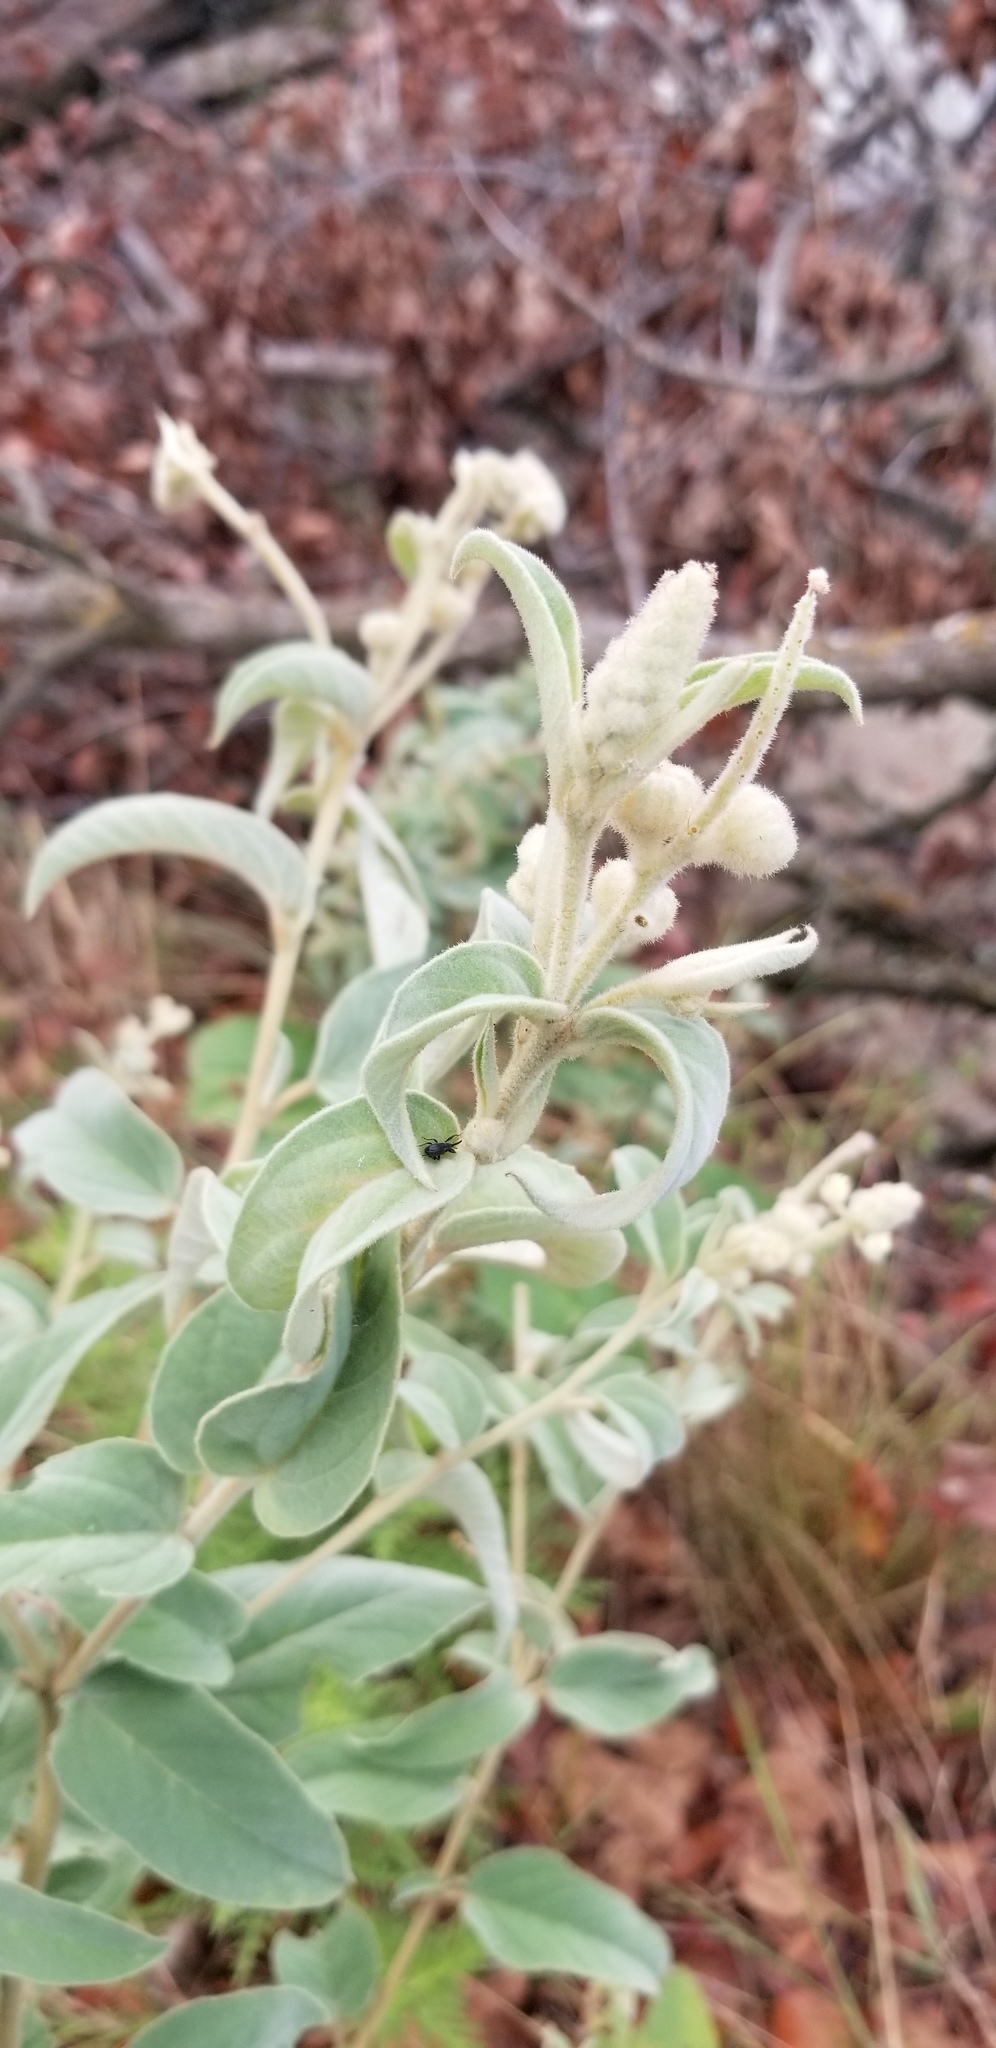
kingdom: Plantae
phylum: Tracheophyta
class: Magnoliopsida
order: Malpighiales
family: Euphorbiaceae
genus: Croton
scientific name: Croton lindheimeri
